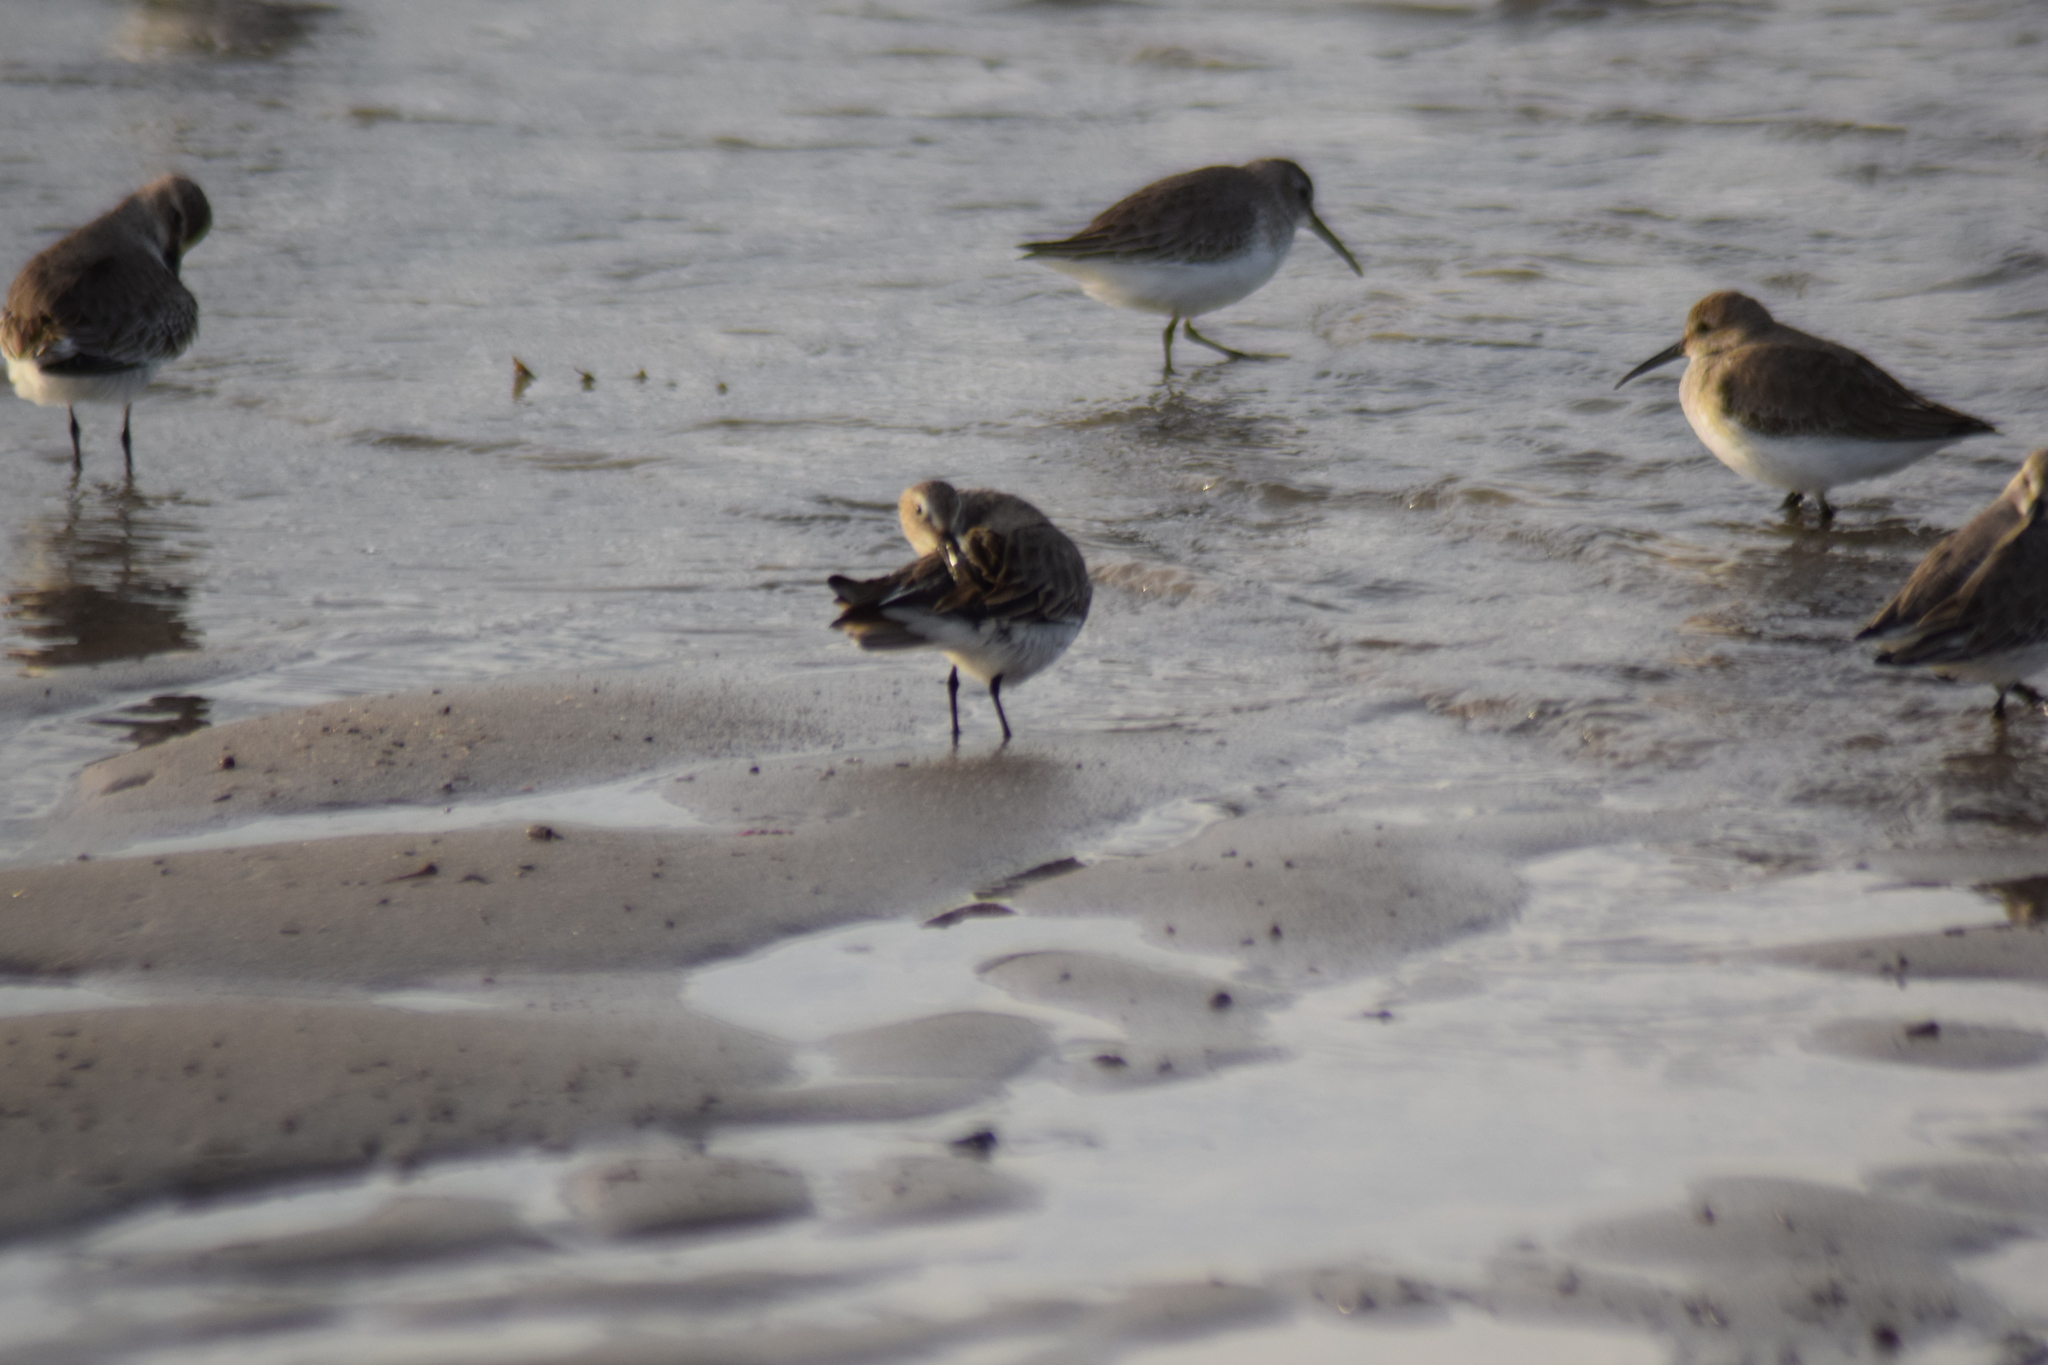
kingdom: Animalia
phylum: Chordata
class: Aves
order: Charadriiformes
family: Scolopacidae
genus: Calidris
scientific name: Calidris alpina
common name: Dunlin
